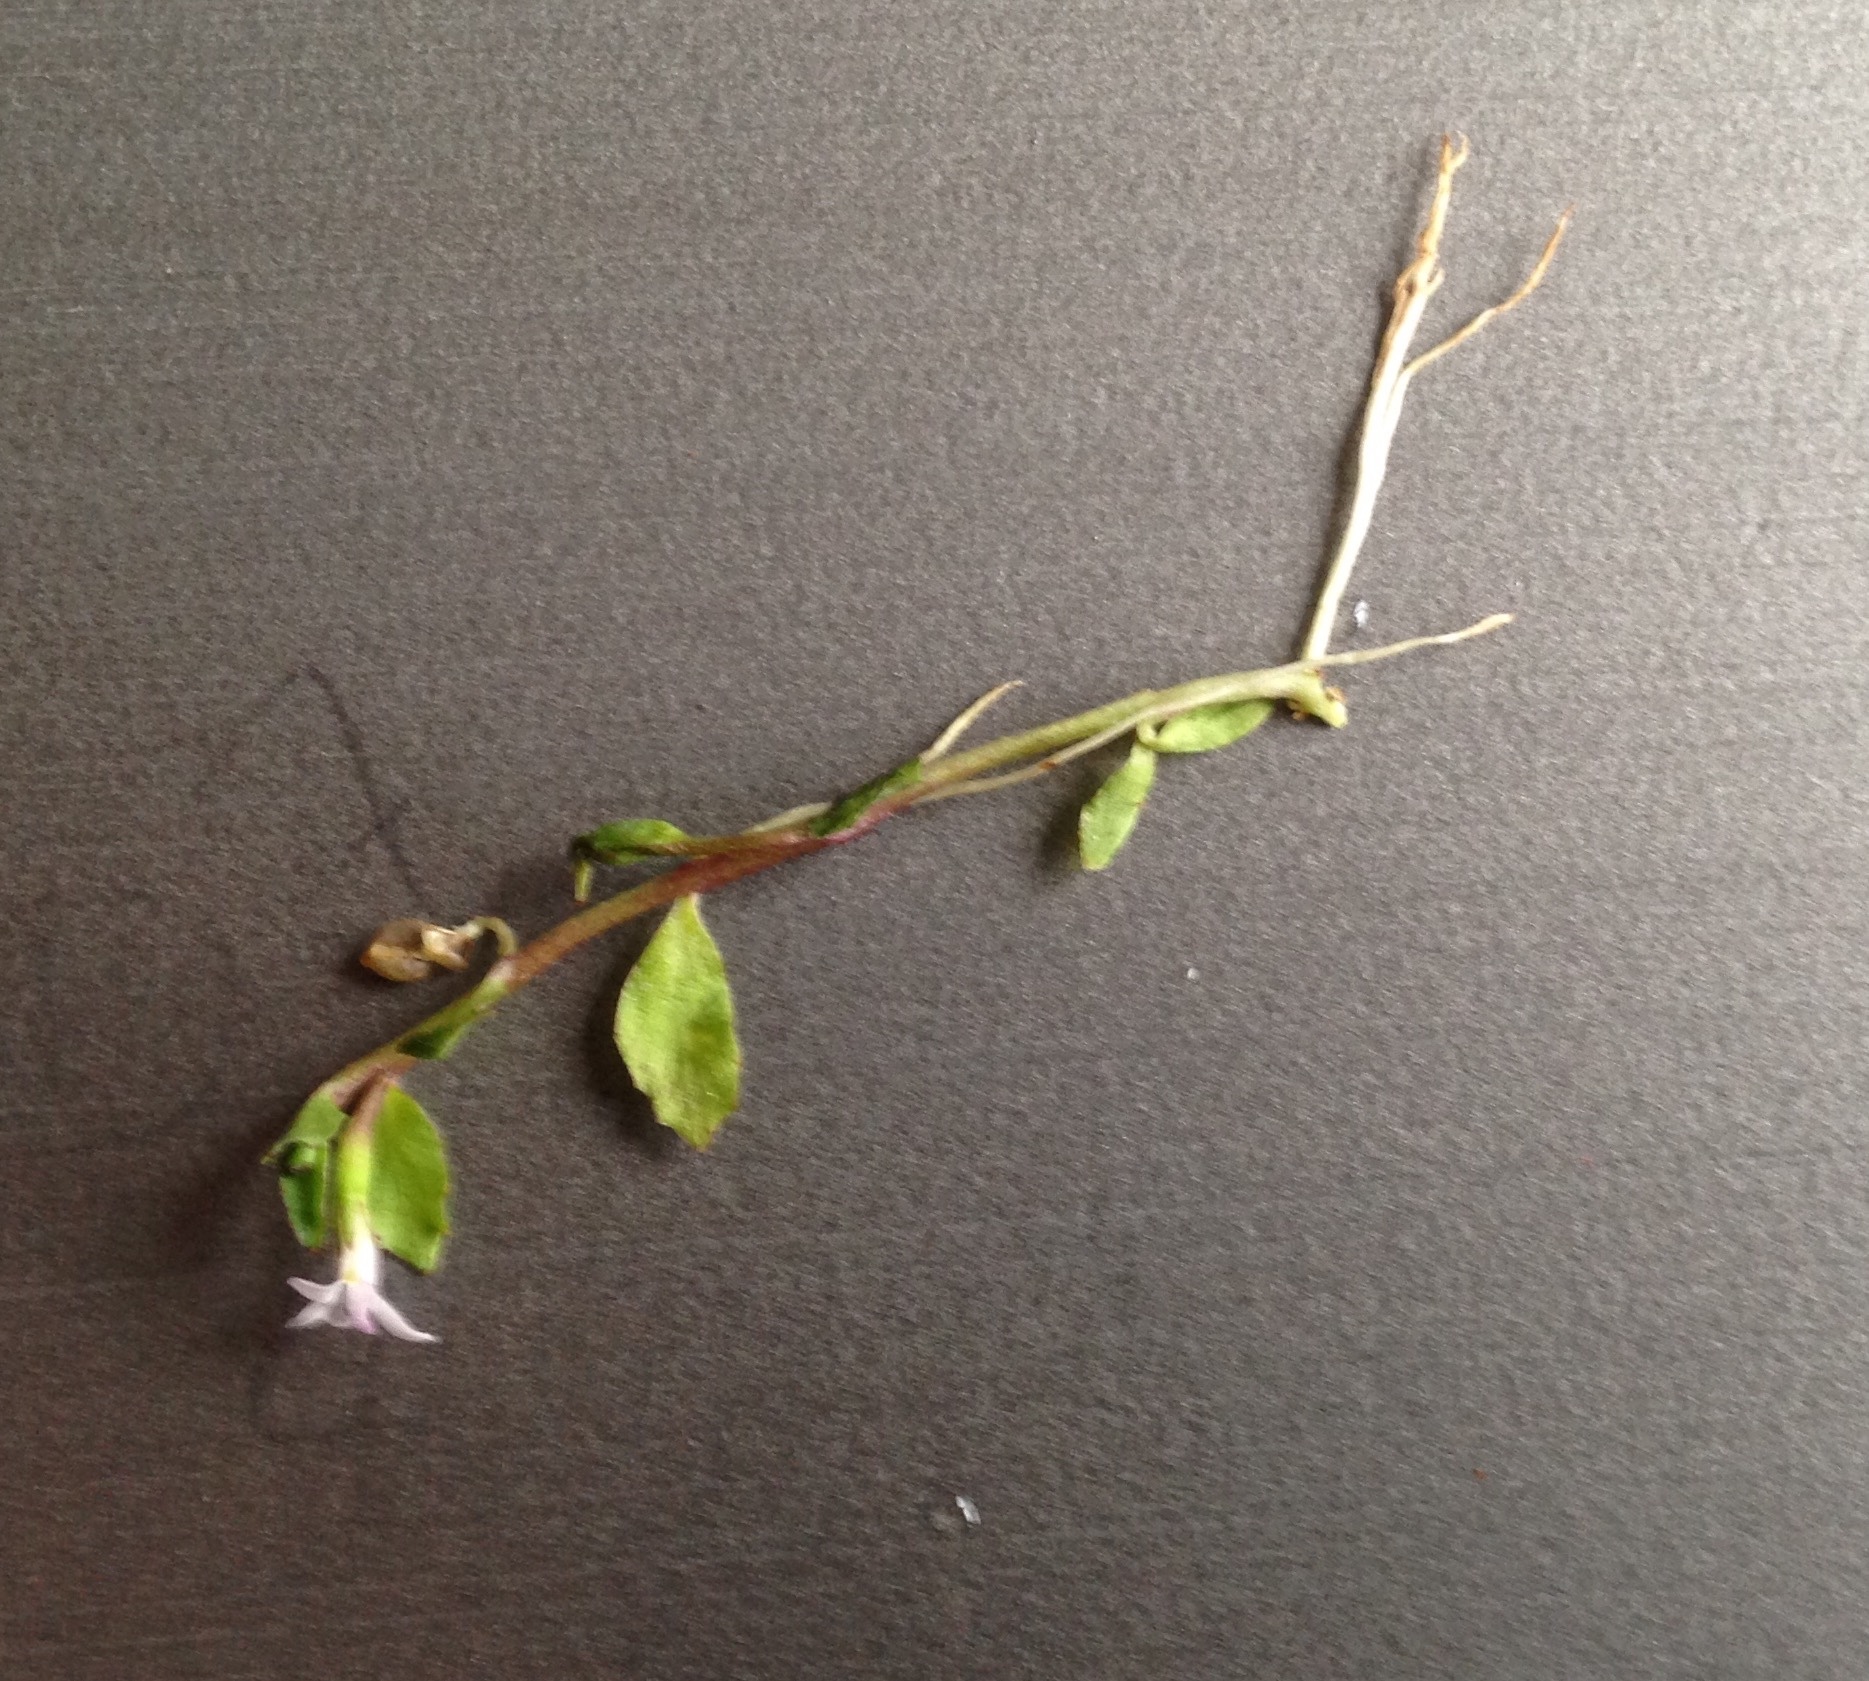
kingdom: Plantae
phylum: Tracheophyta
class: Magnoliopsida
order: Asterales
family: Campanulaceae
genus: Lobelia
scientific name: Lobelia fatiscens
